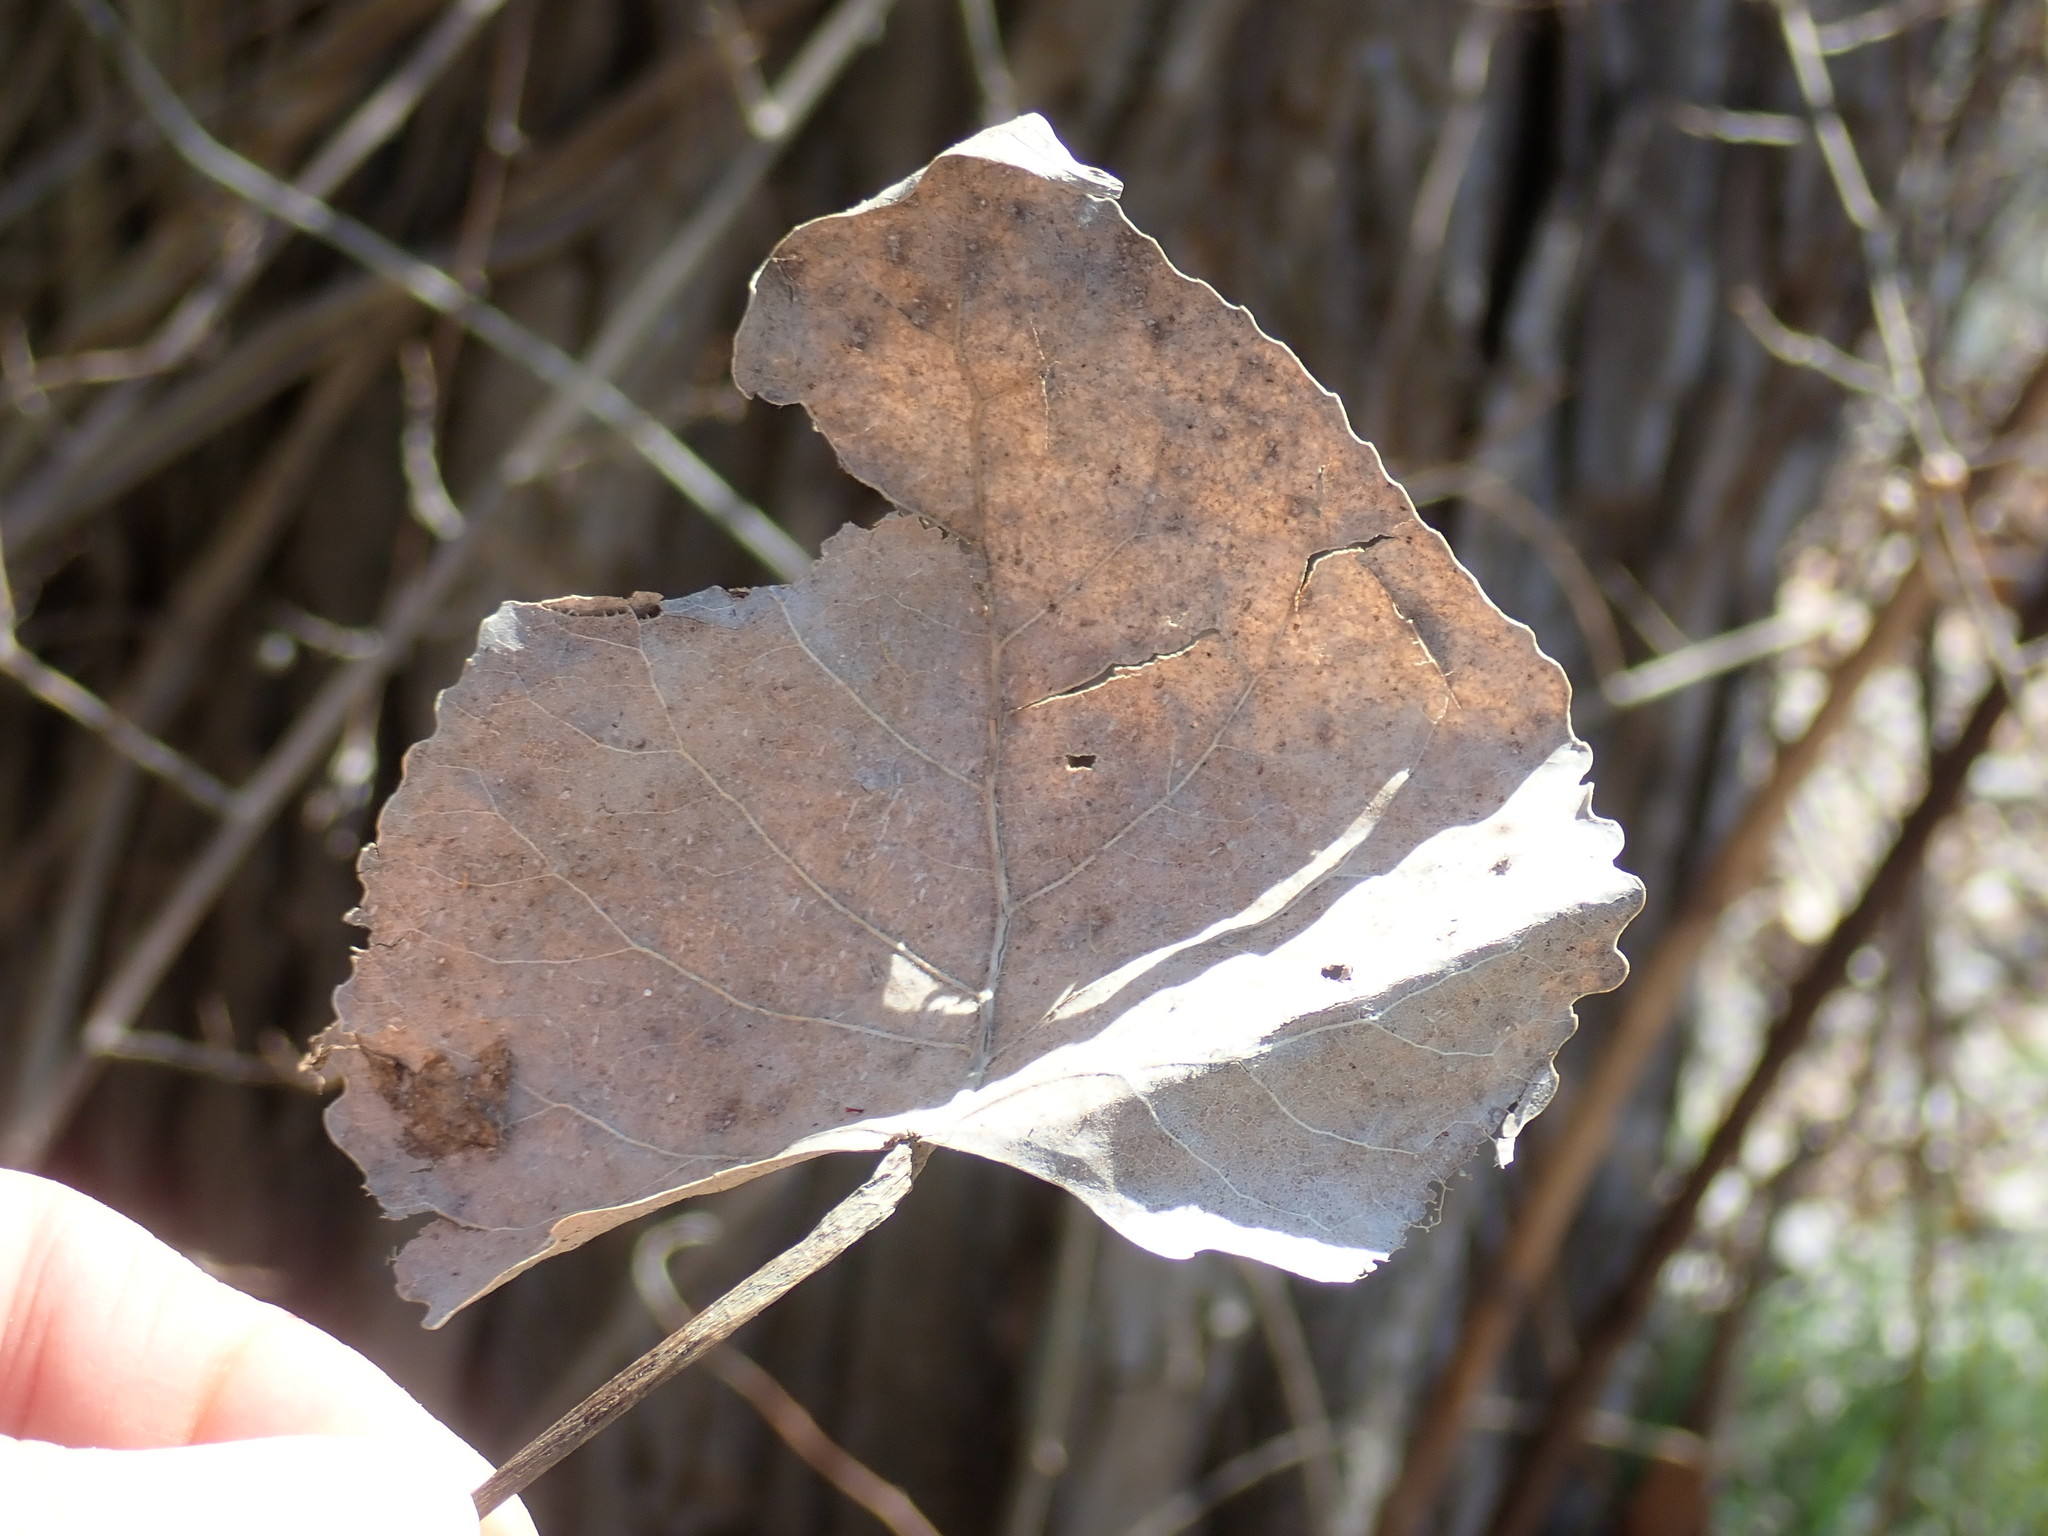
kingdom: Plantae
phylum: Tracheophyta
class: Magnoliopsida
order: Malpighiales
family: Salicaceae
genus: Populus
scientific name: Populus deltoides
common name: Eastern cottonwood
